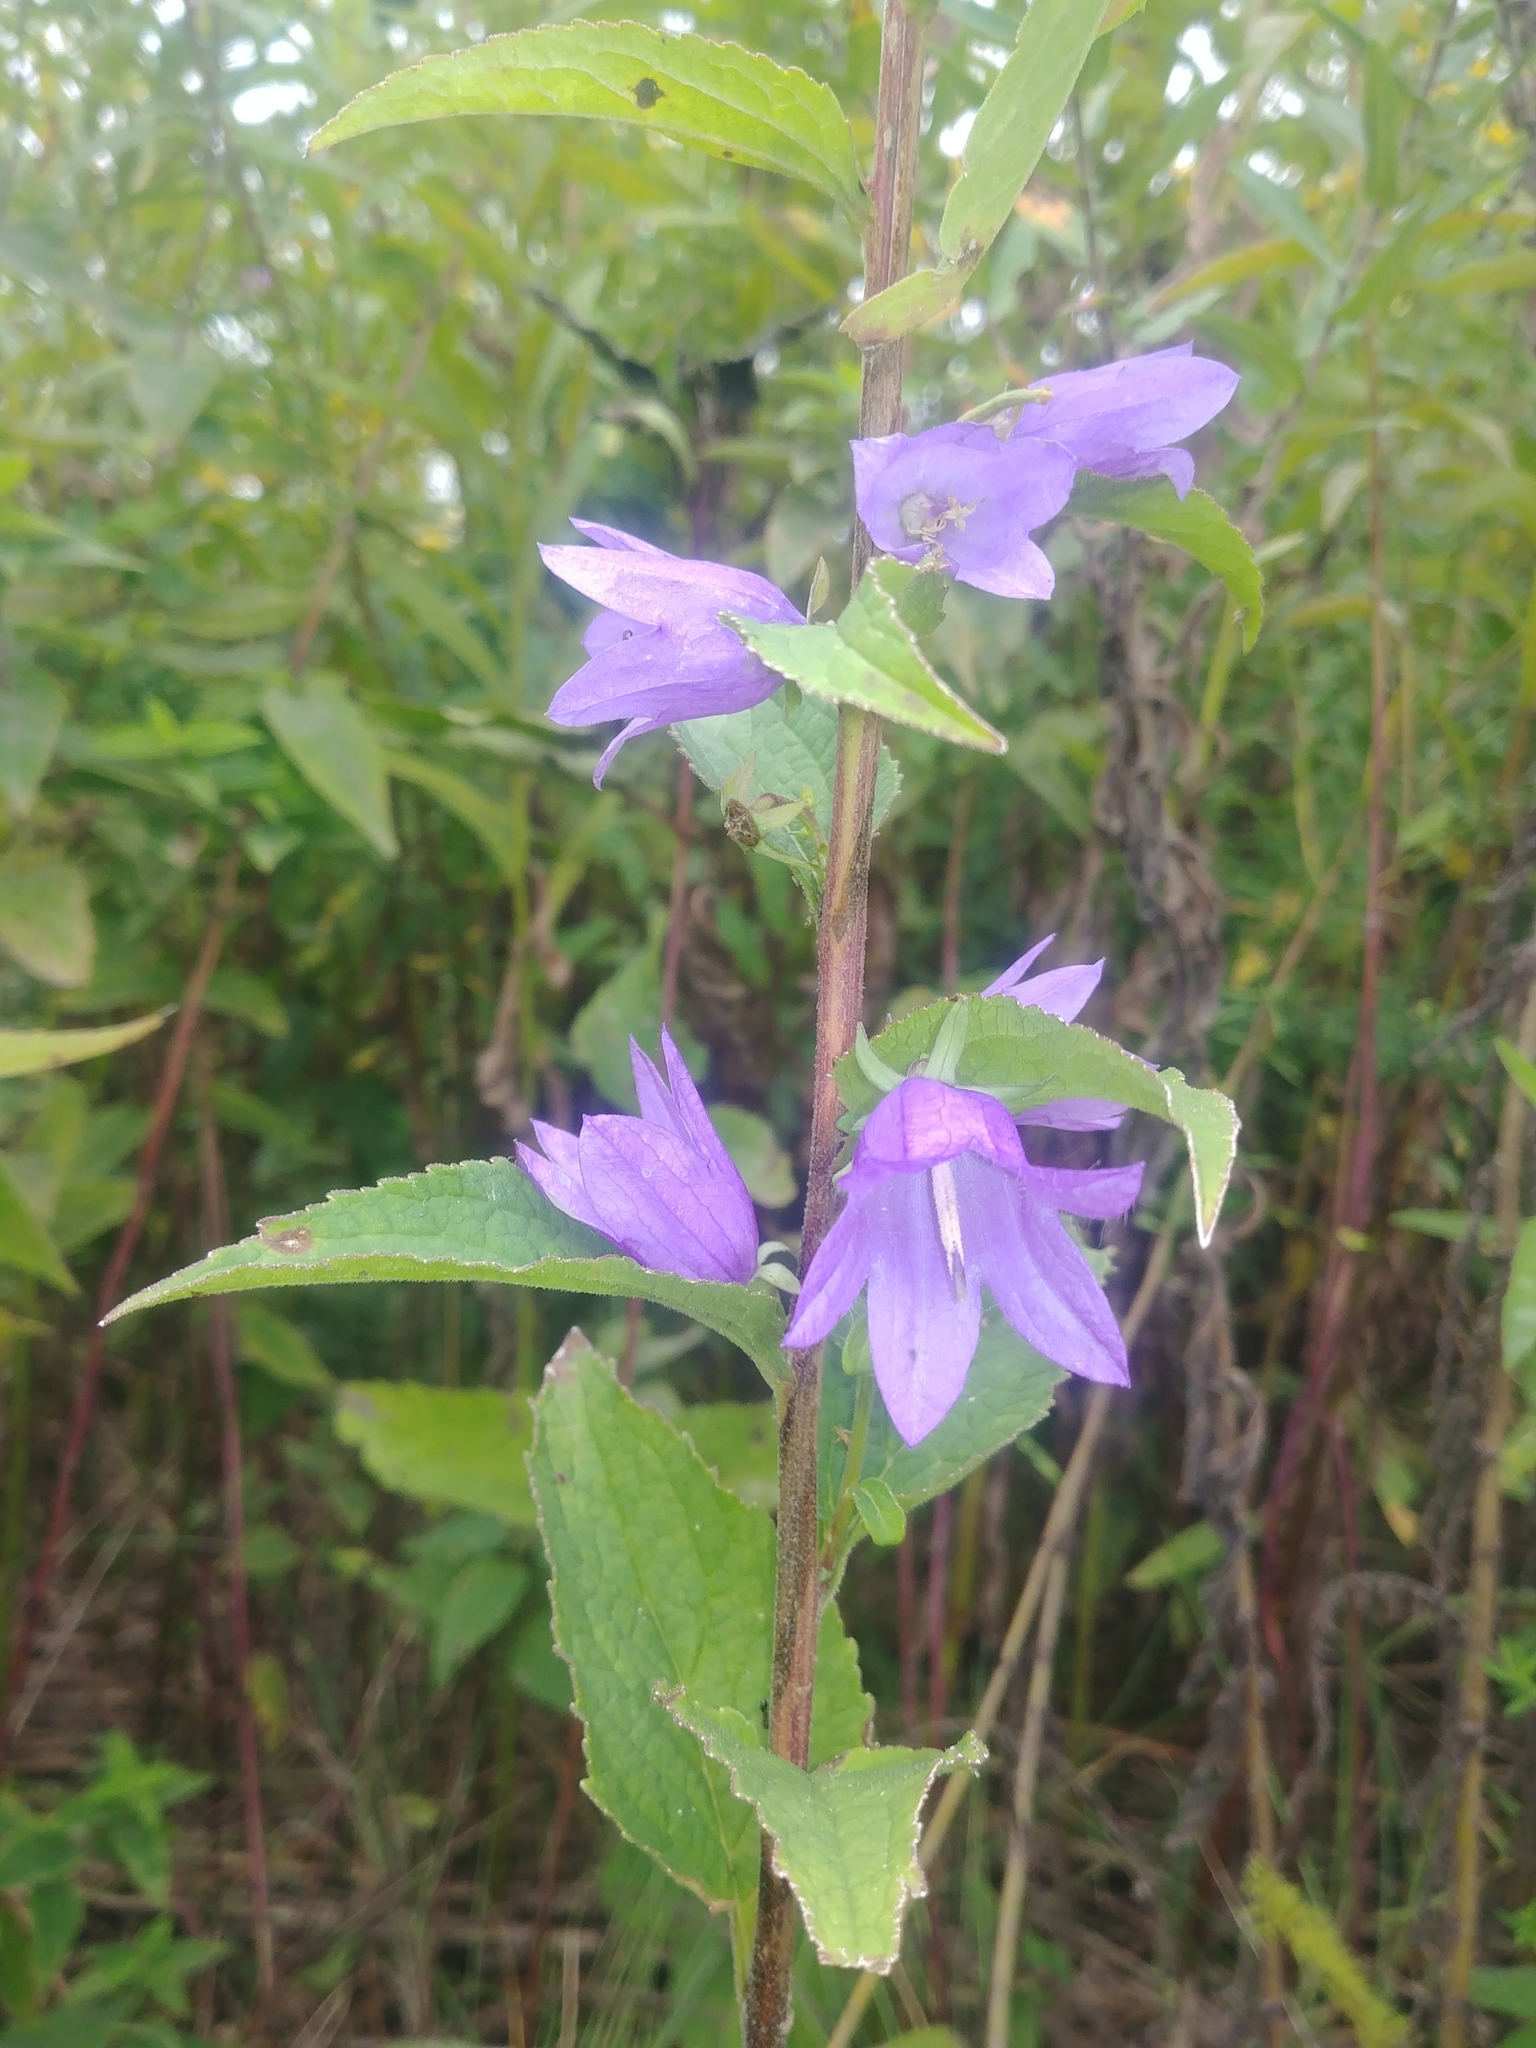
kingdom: Plantae
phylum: Tracheophyta
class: Magnoliopsida
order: Asterales
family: Campanulaceae
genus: Campanula
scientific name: Campanula rapunculoides
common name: Creeping bellflower
